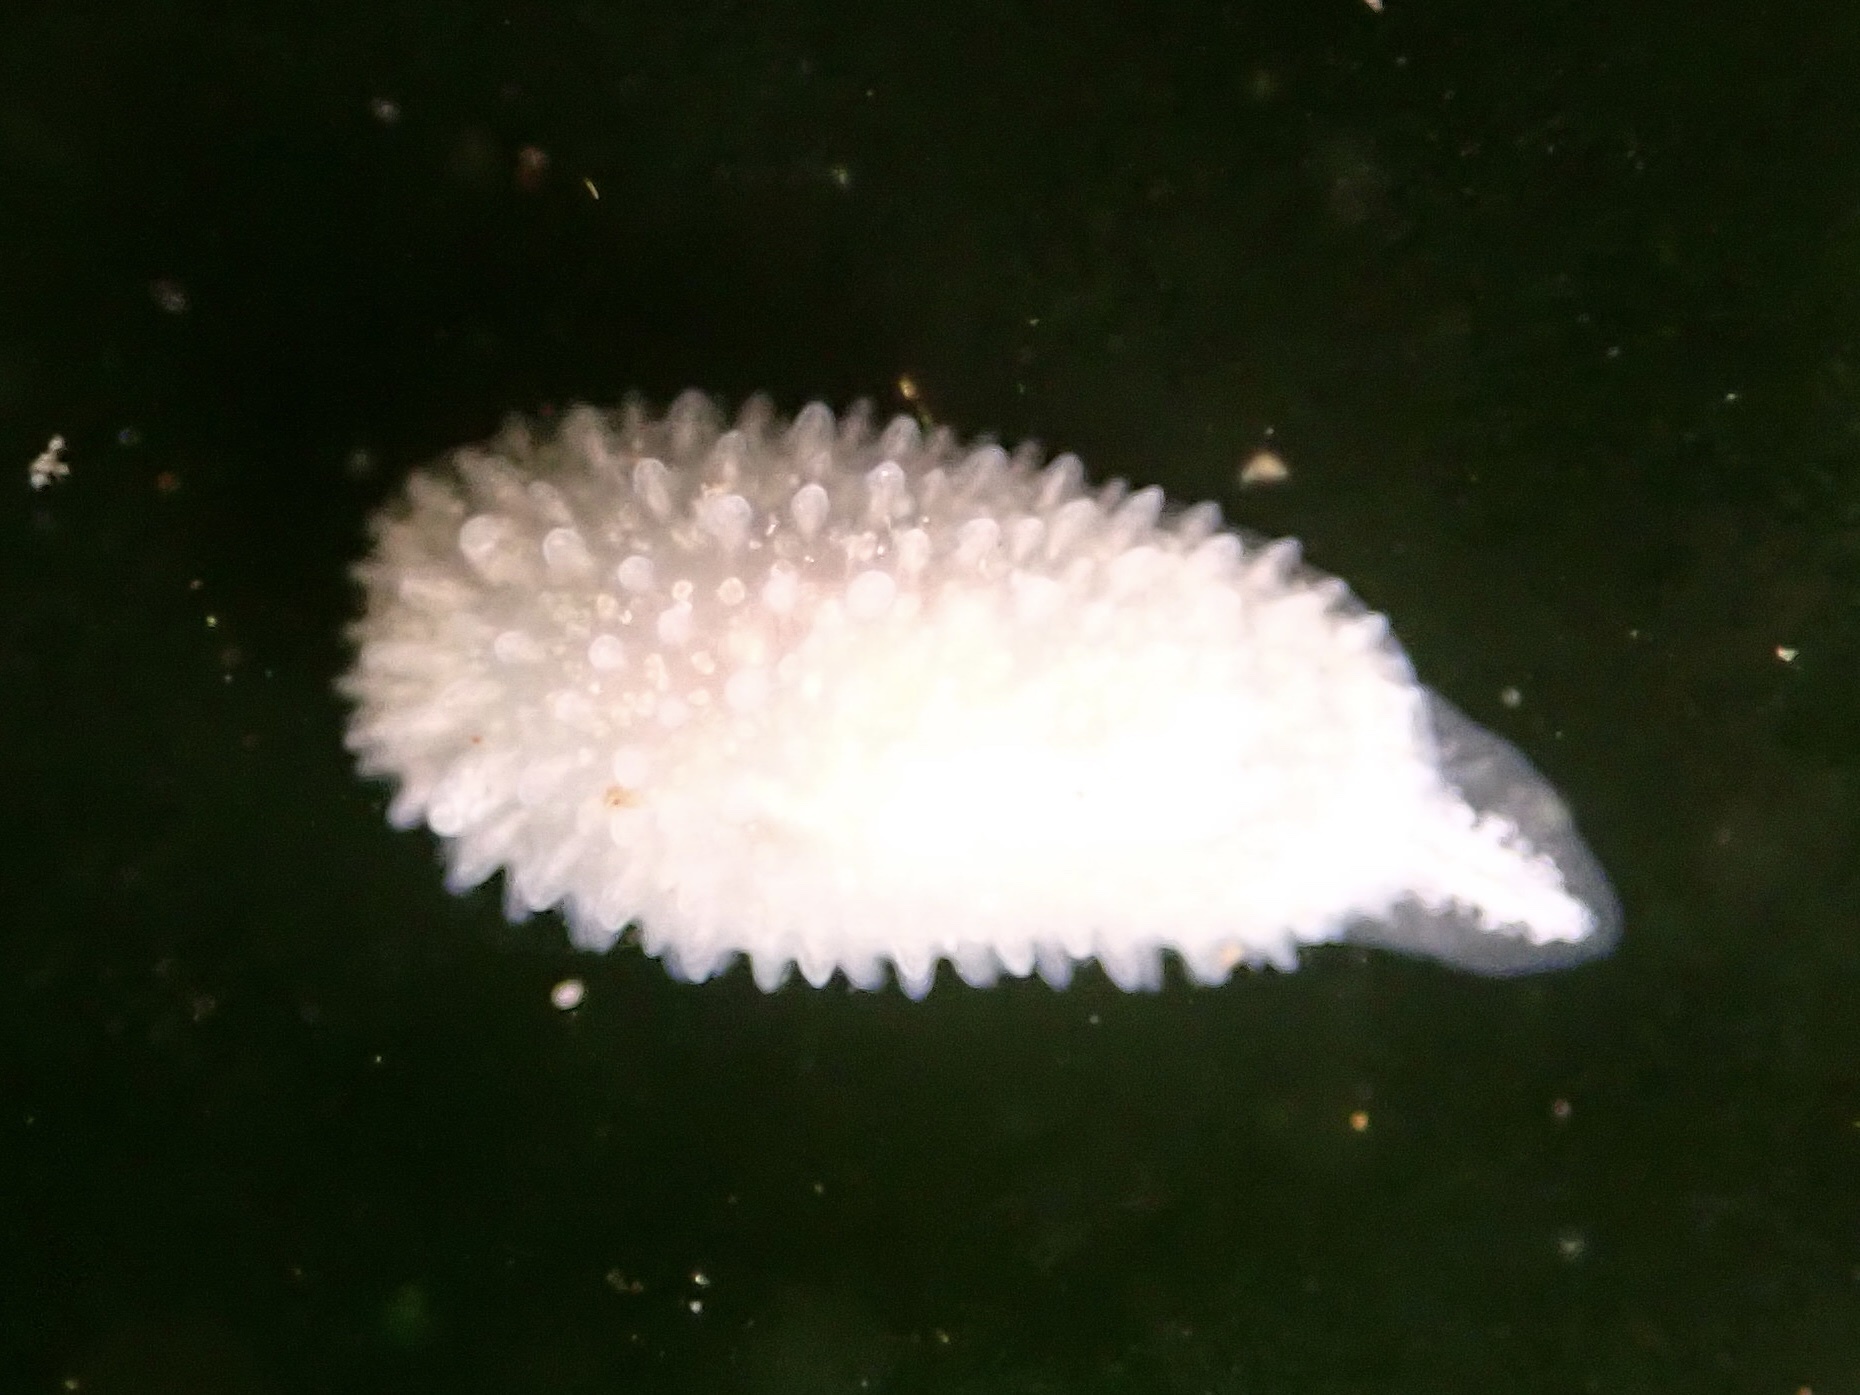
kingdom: Animalia
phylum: Mollusca
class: Gastropoda
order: Nudibranchia
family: Calycidorididae
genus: Diaphorodoris
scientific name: Diaphorodoris lirulatocauda
